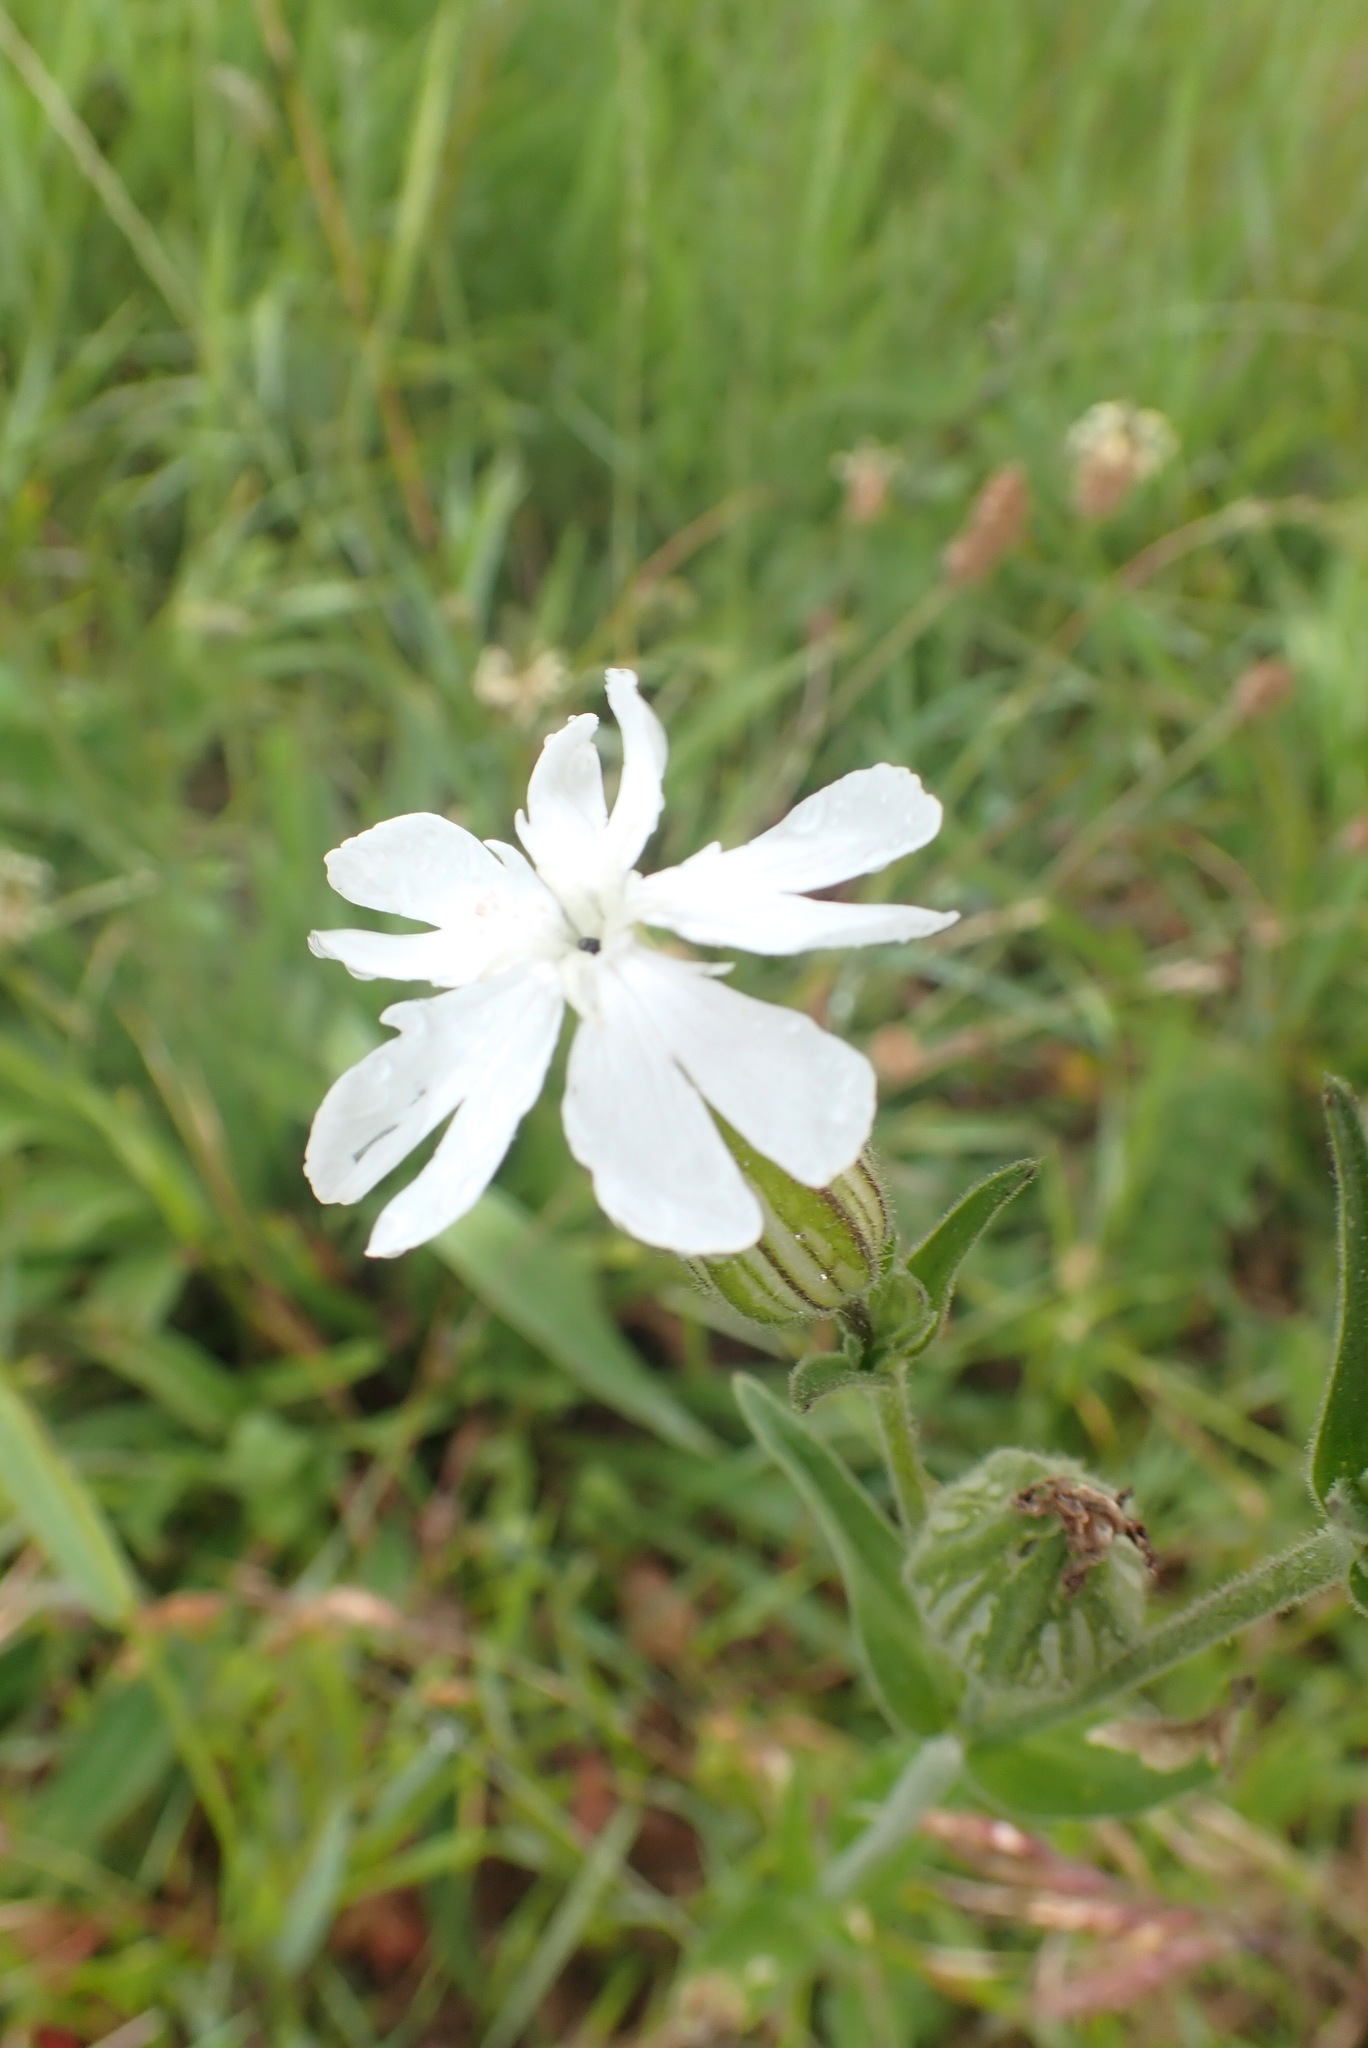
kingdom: Plantae
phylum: Tracheophyta
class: Magnoliopsida
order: Caryophyllales
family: Caryophyllaceae
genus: Silene
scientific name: Silene latifolia
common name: White campion
